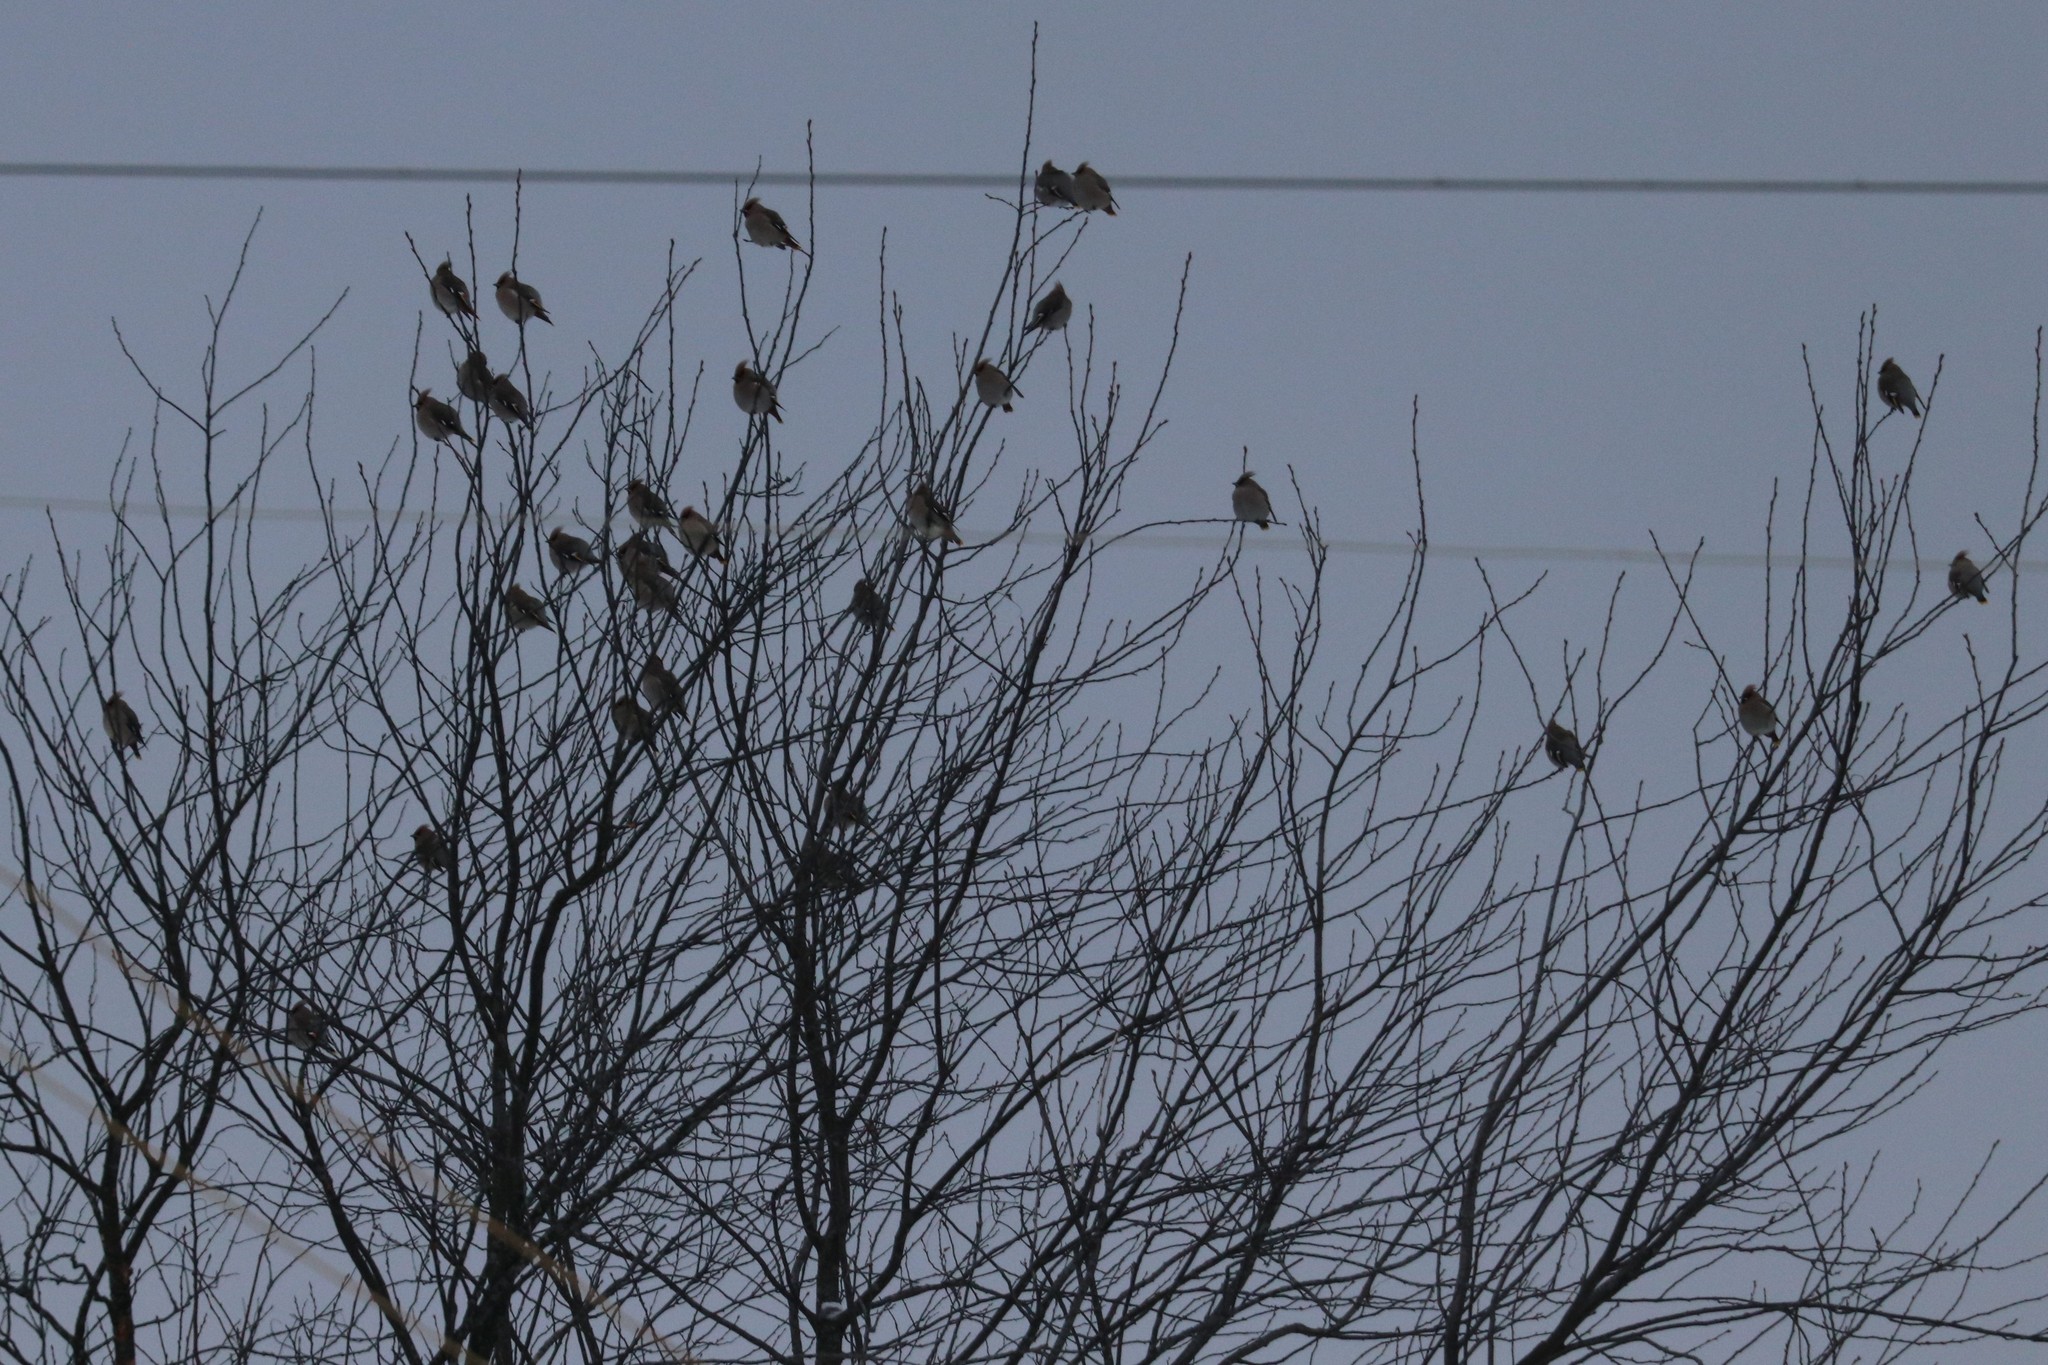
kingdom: Animalia
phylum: Chordata
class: Aves
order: Passeriformes
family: Bombycillidae
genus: Bombycilla
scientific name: Bombycilla garrulus
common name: Bohemian waxwing
